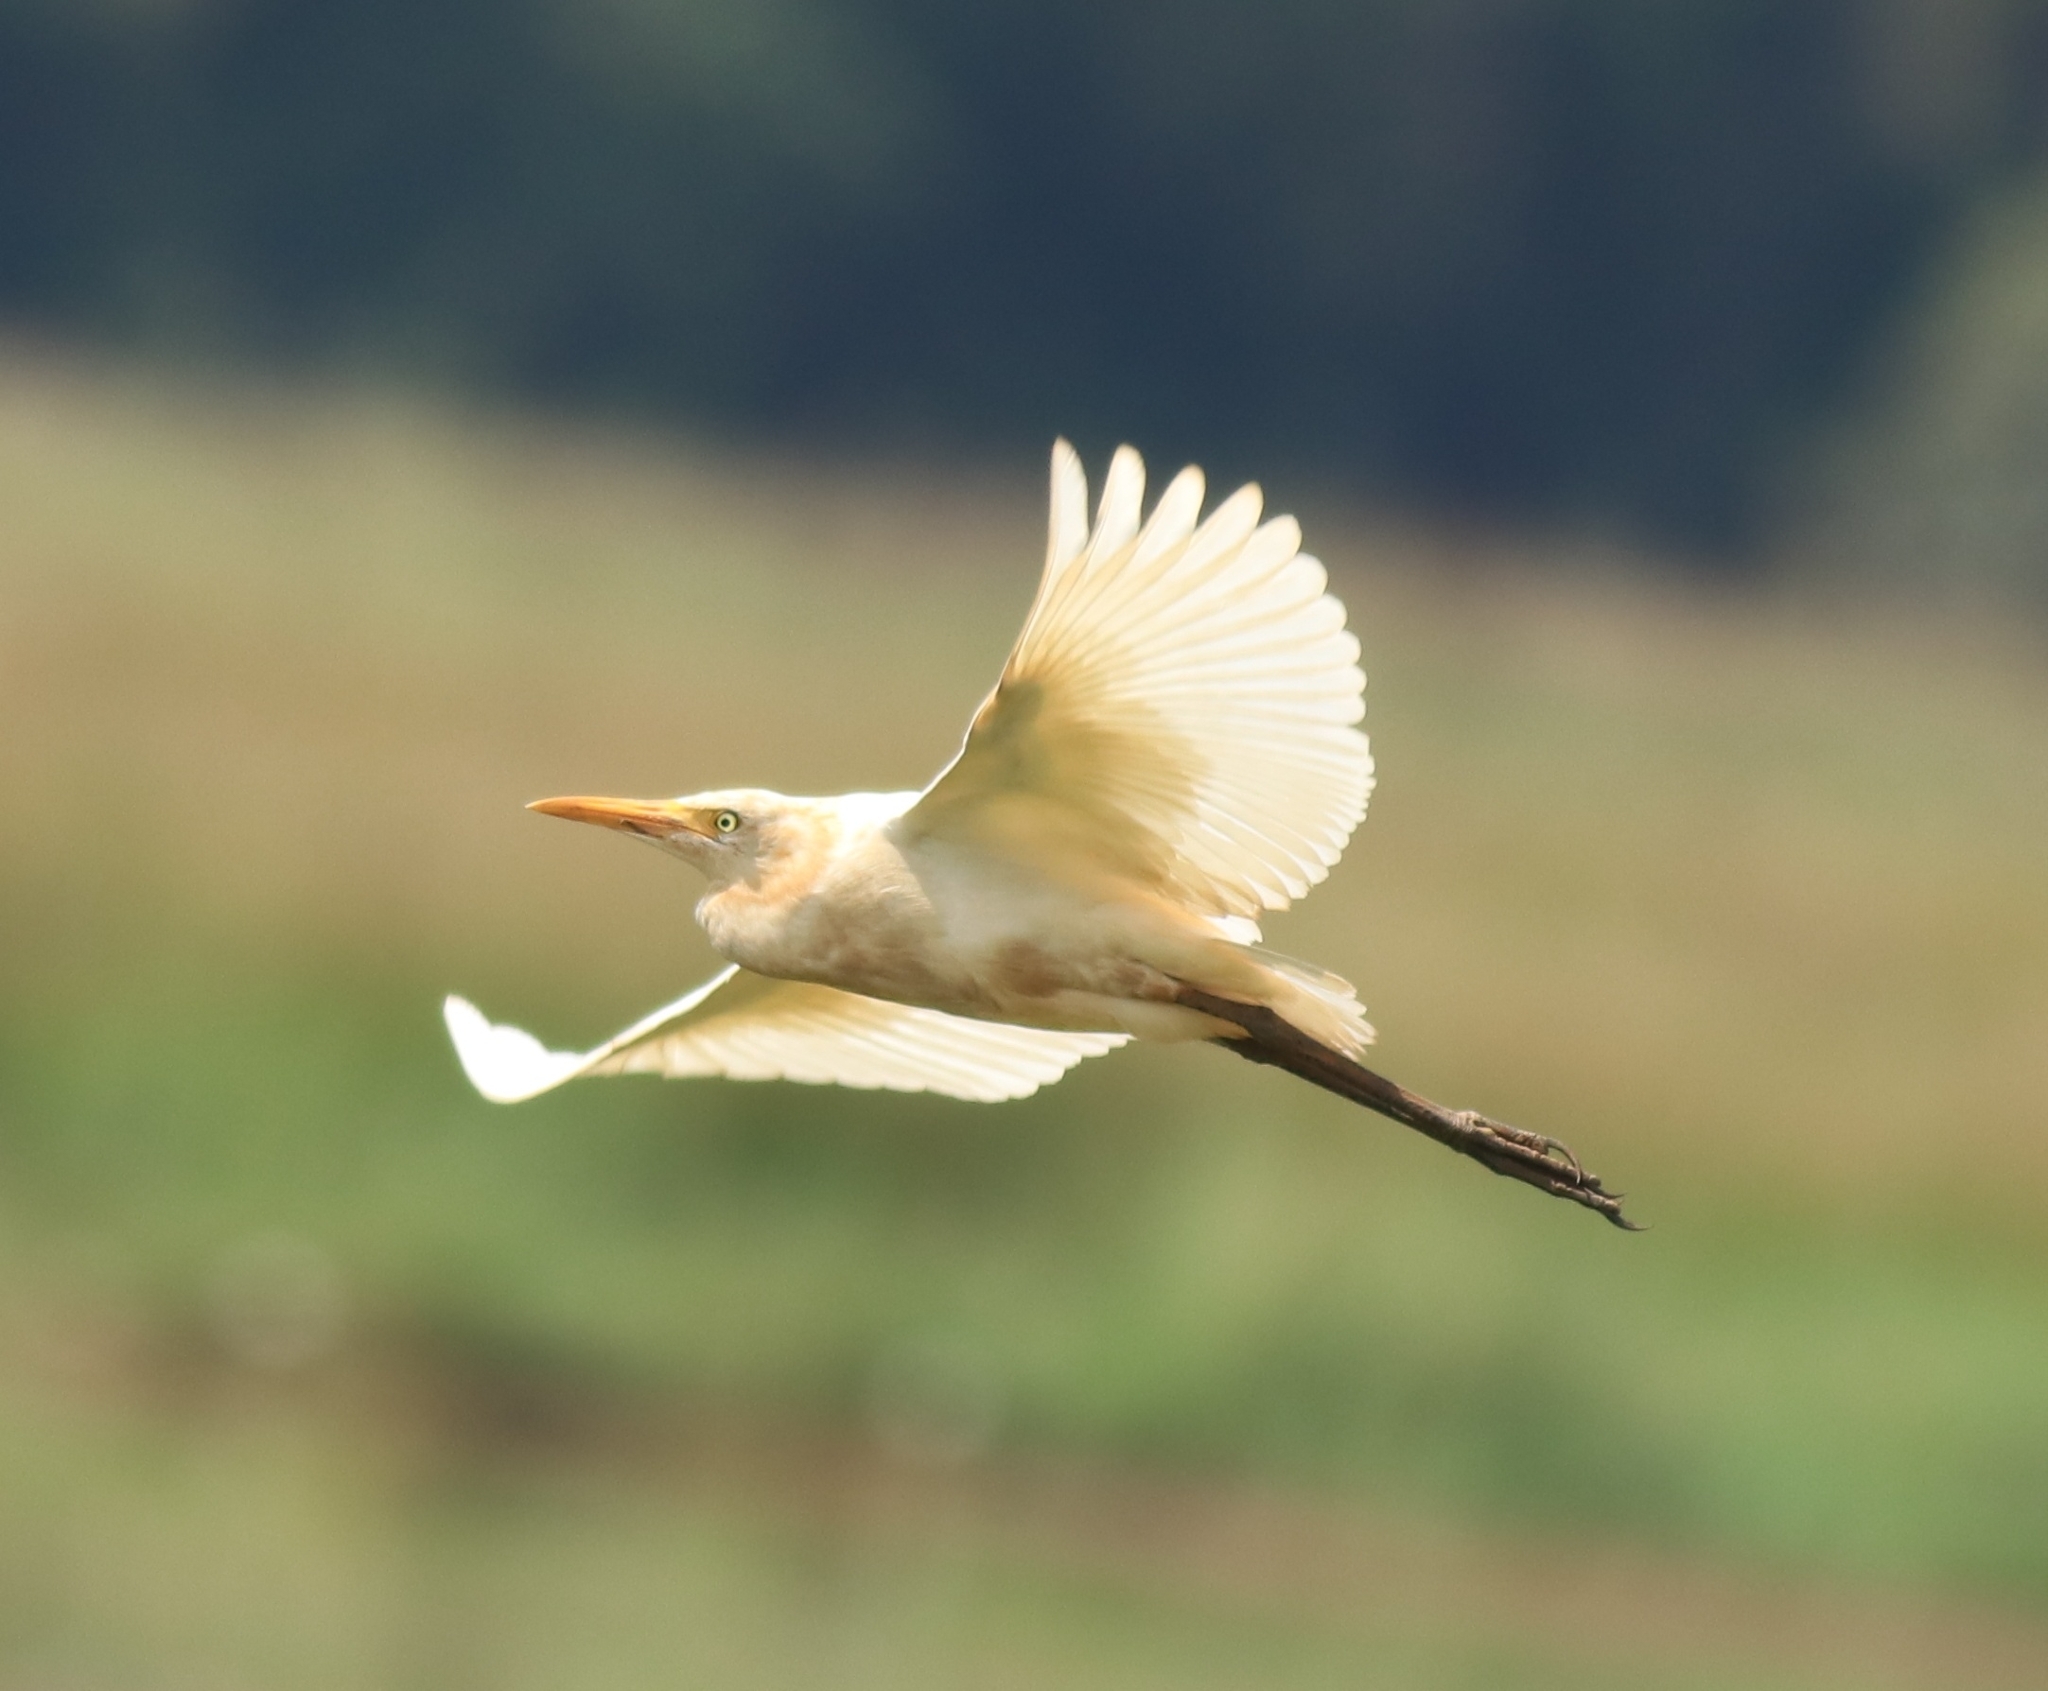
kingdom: Animalia
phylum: Chordata
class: Aves
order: Pelecaniformes
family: Ardeidae
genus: Bubulcus
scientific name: Bubulcus coromandus
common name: Eastern cattle egret
